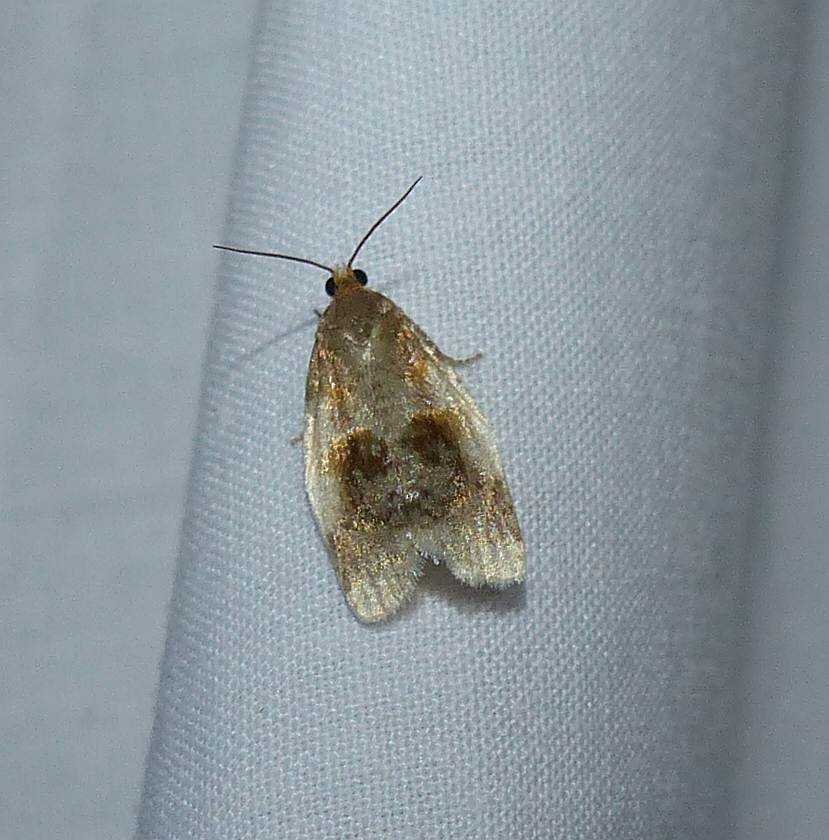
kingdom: Animalia
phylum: Arthropoda
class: Insecta
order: Lepidoptera
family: Tortricidae
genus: Clepsis
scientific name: Clepsis melaleucanus
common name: American apple tortrix
